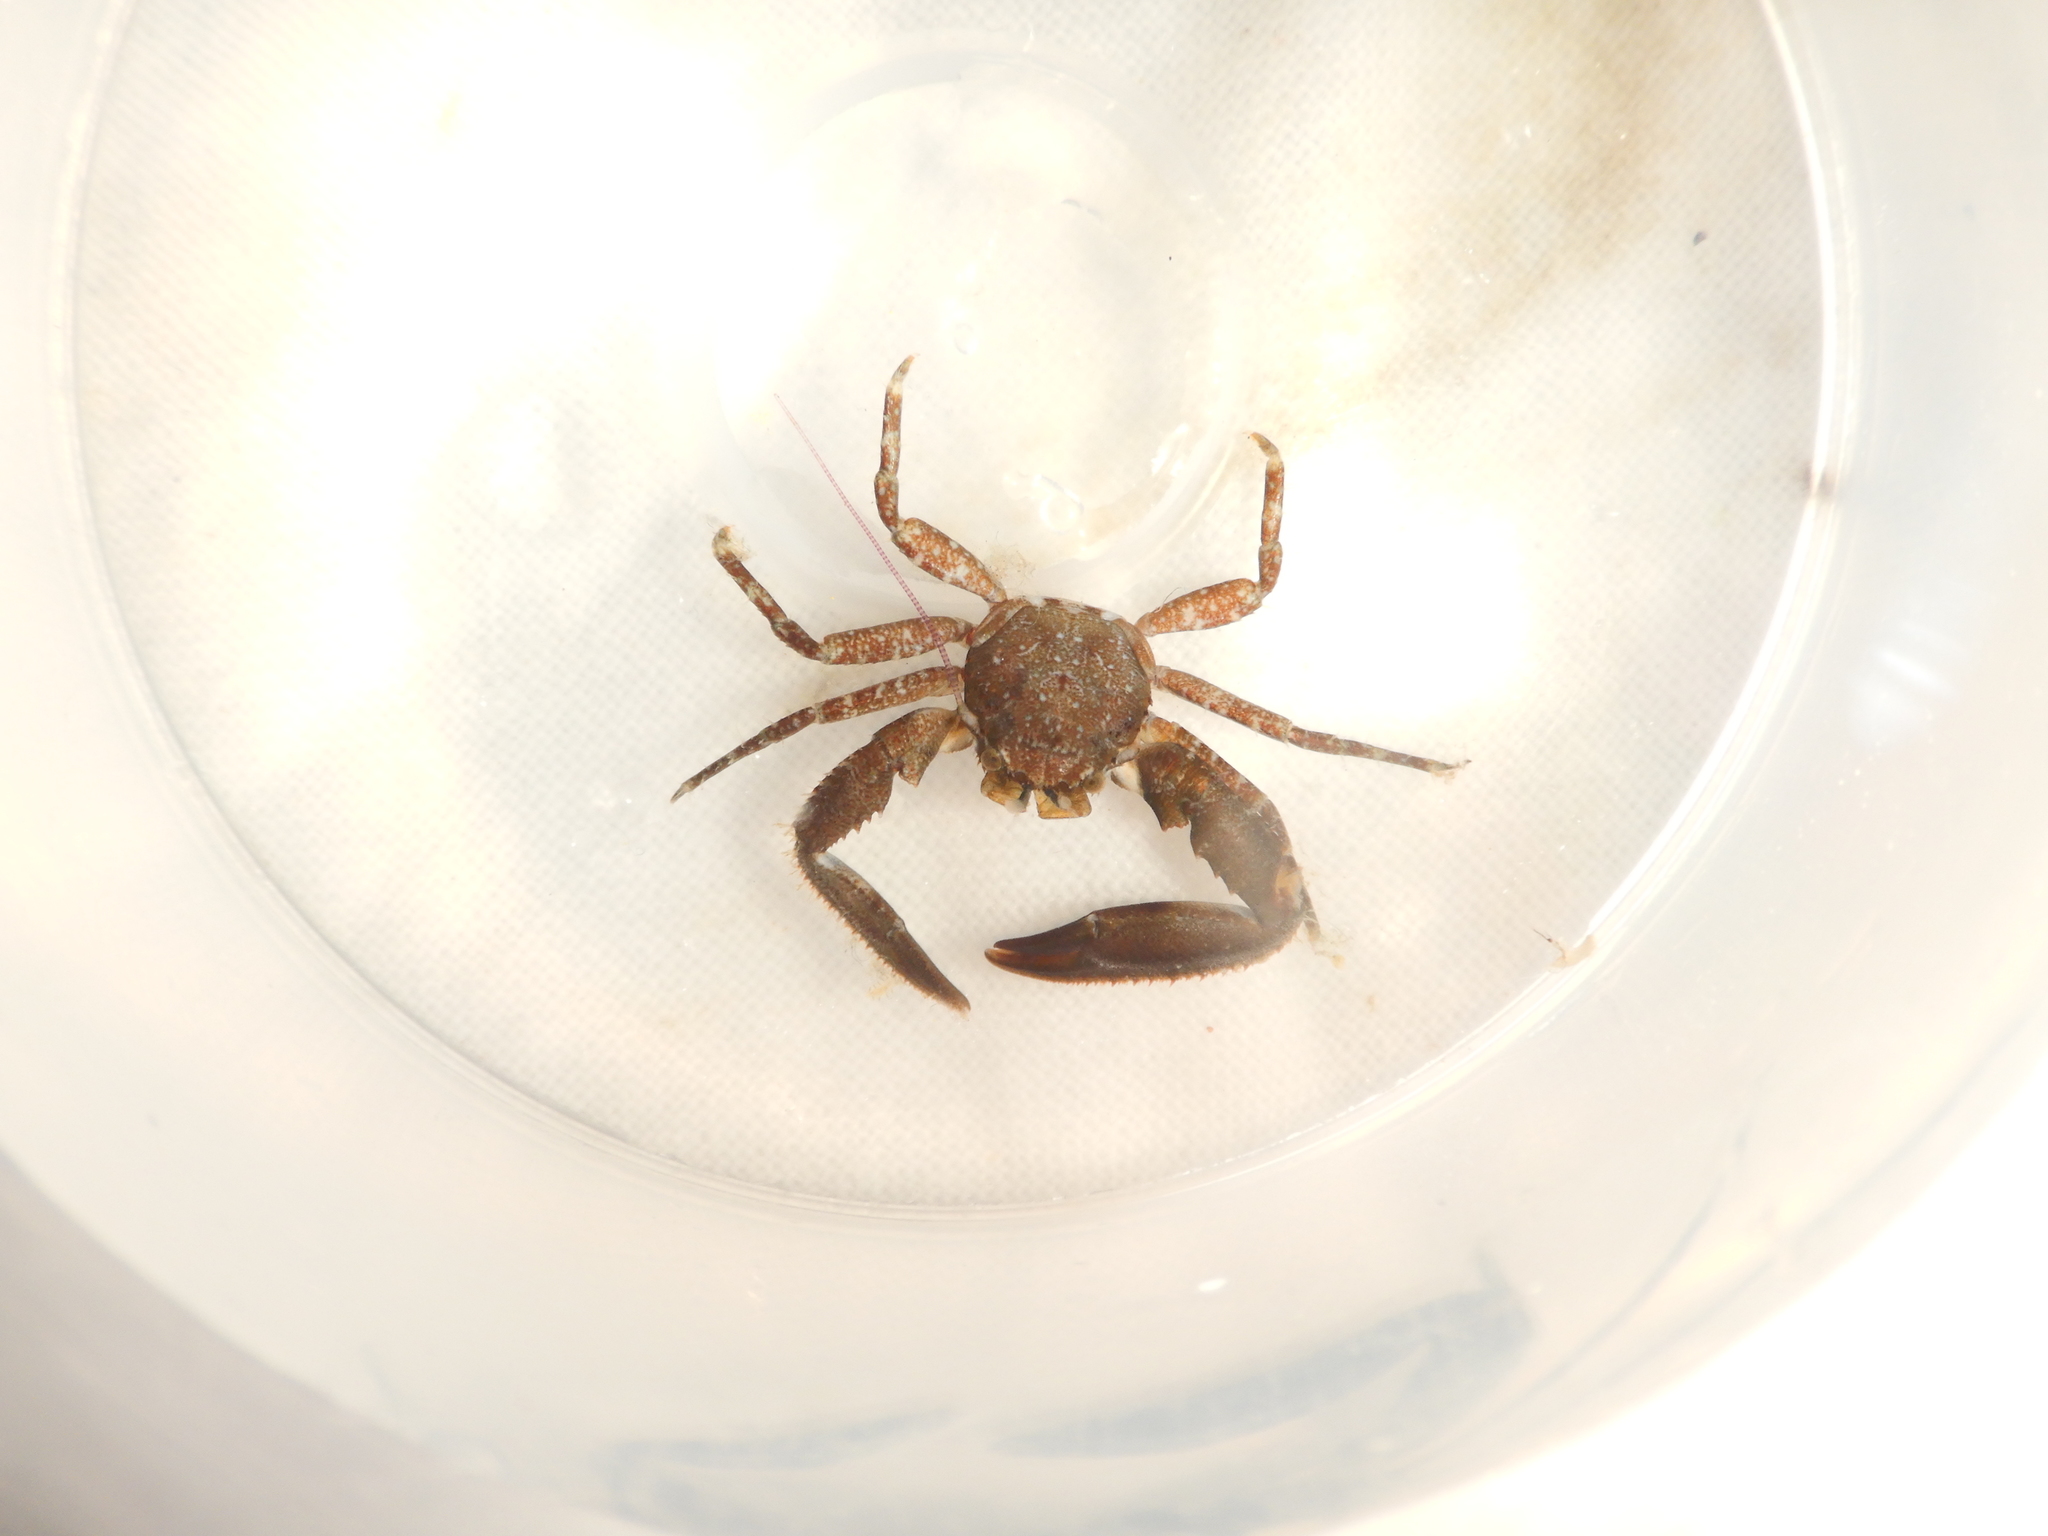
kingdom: Animalia
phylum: Arthropoda
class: Malacostraca
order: Decapoda
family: Porcellanidae
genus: Pisidia
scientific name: Pisidia bluteli
